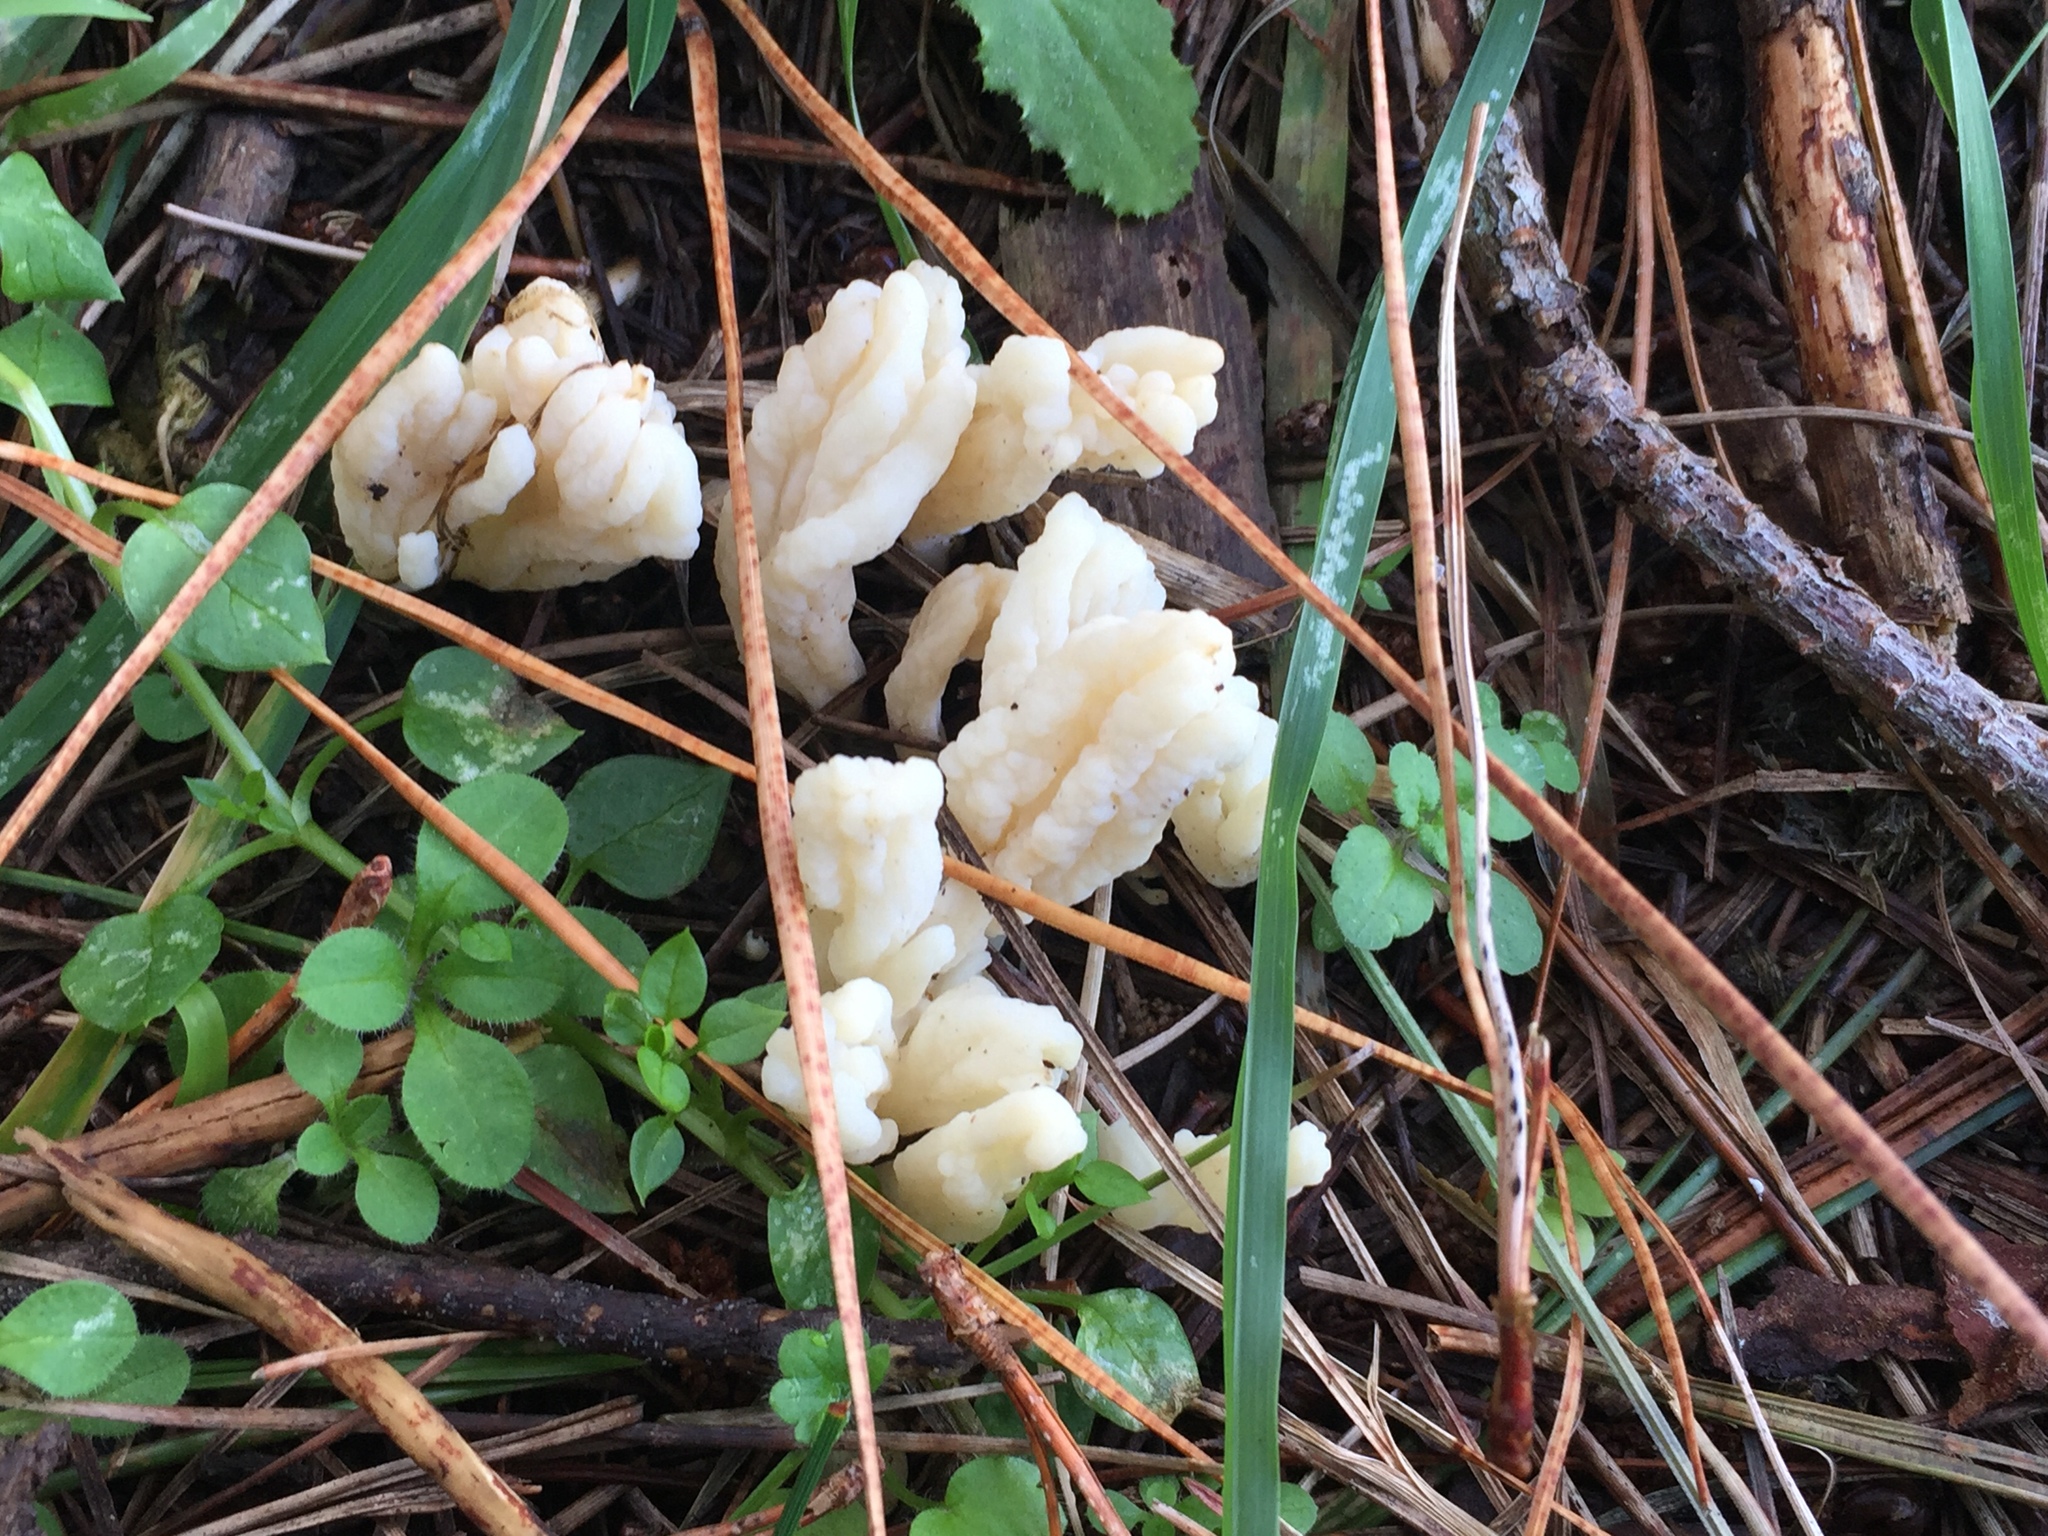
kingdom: Fungi
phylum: Basidiomycota
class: Agaricomycetes
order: Cantharellales
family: Hydnaceae
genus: Clavulina
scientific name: Clavulina rugosa
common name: Wrinkled club
